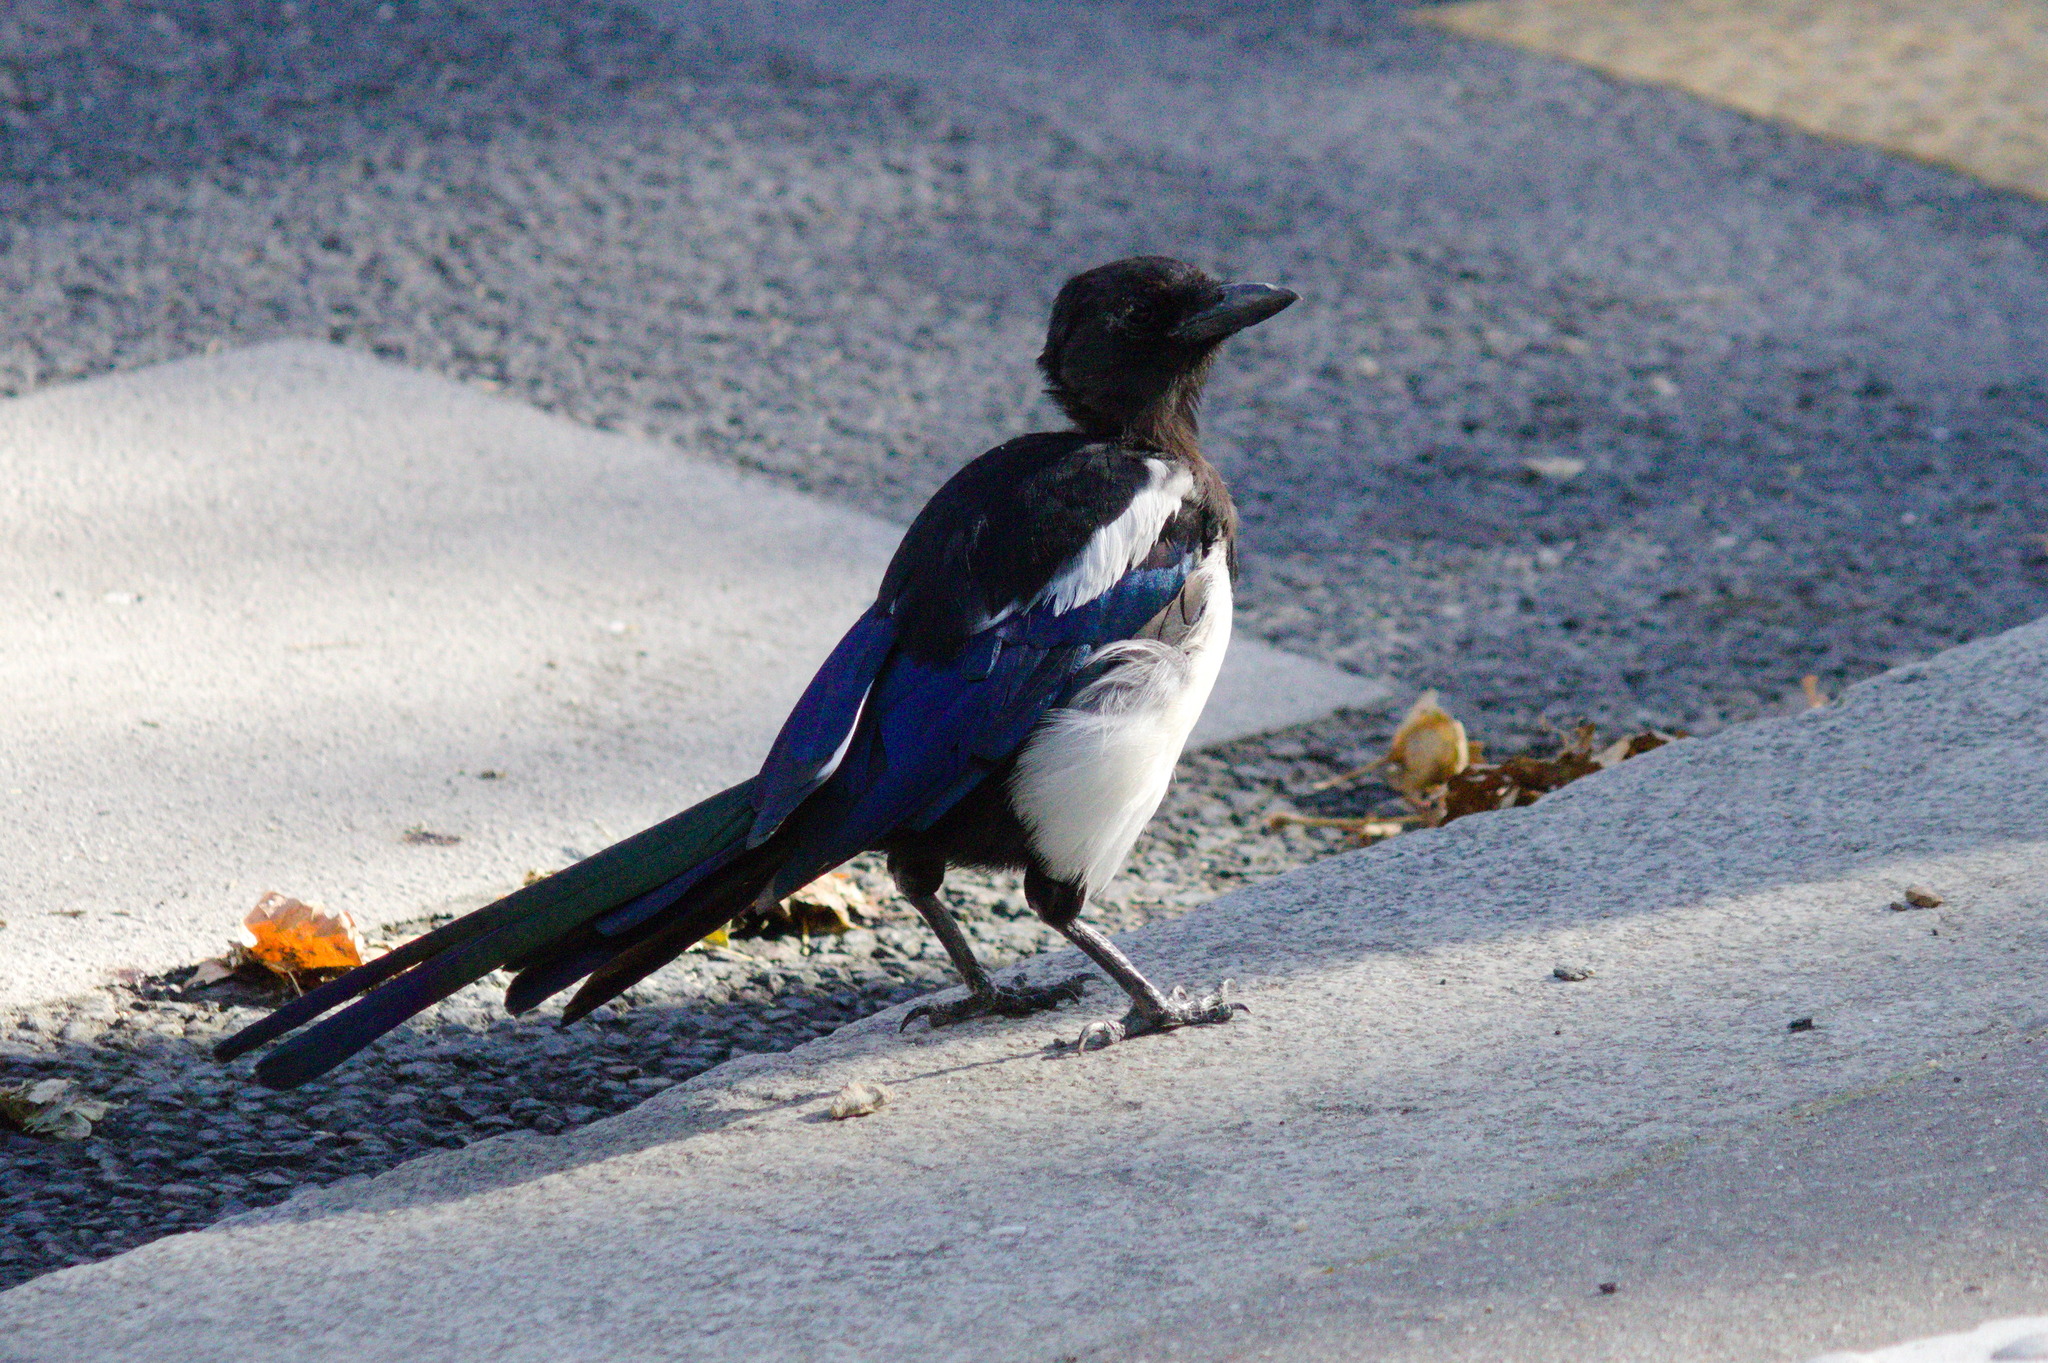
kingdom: Animalia
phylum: Chordata
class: Aves
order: Passeriformes
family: Corvidae
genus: Pica
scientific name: Pica pica
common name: Eurasian magpie
